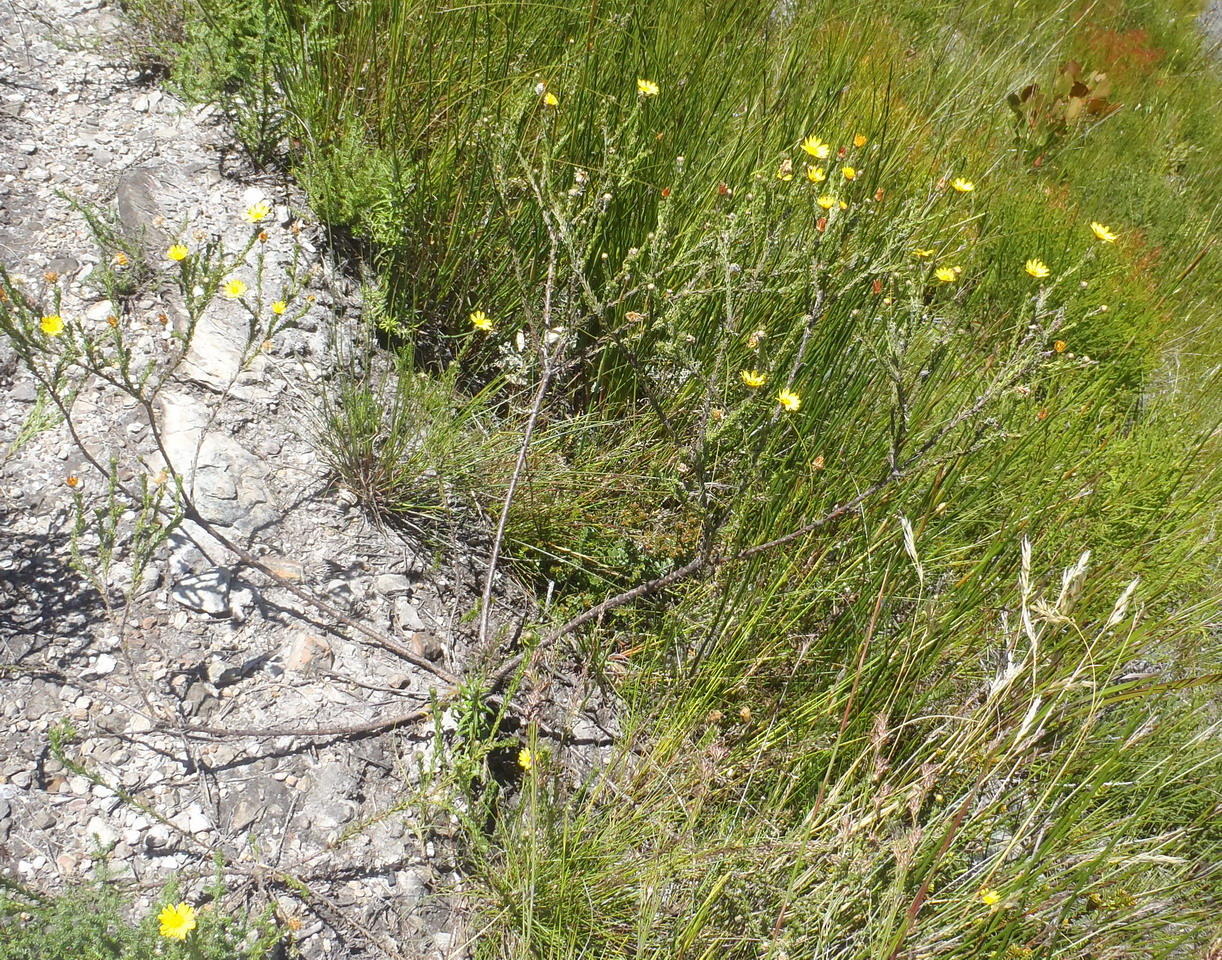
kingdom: Plantae
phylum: Tracheophyta
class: Magnoliopsida
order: Asterales
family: Asteraceae
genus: Ursinia
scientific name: Ursinia trifida
